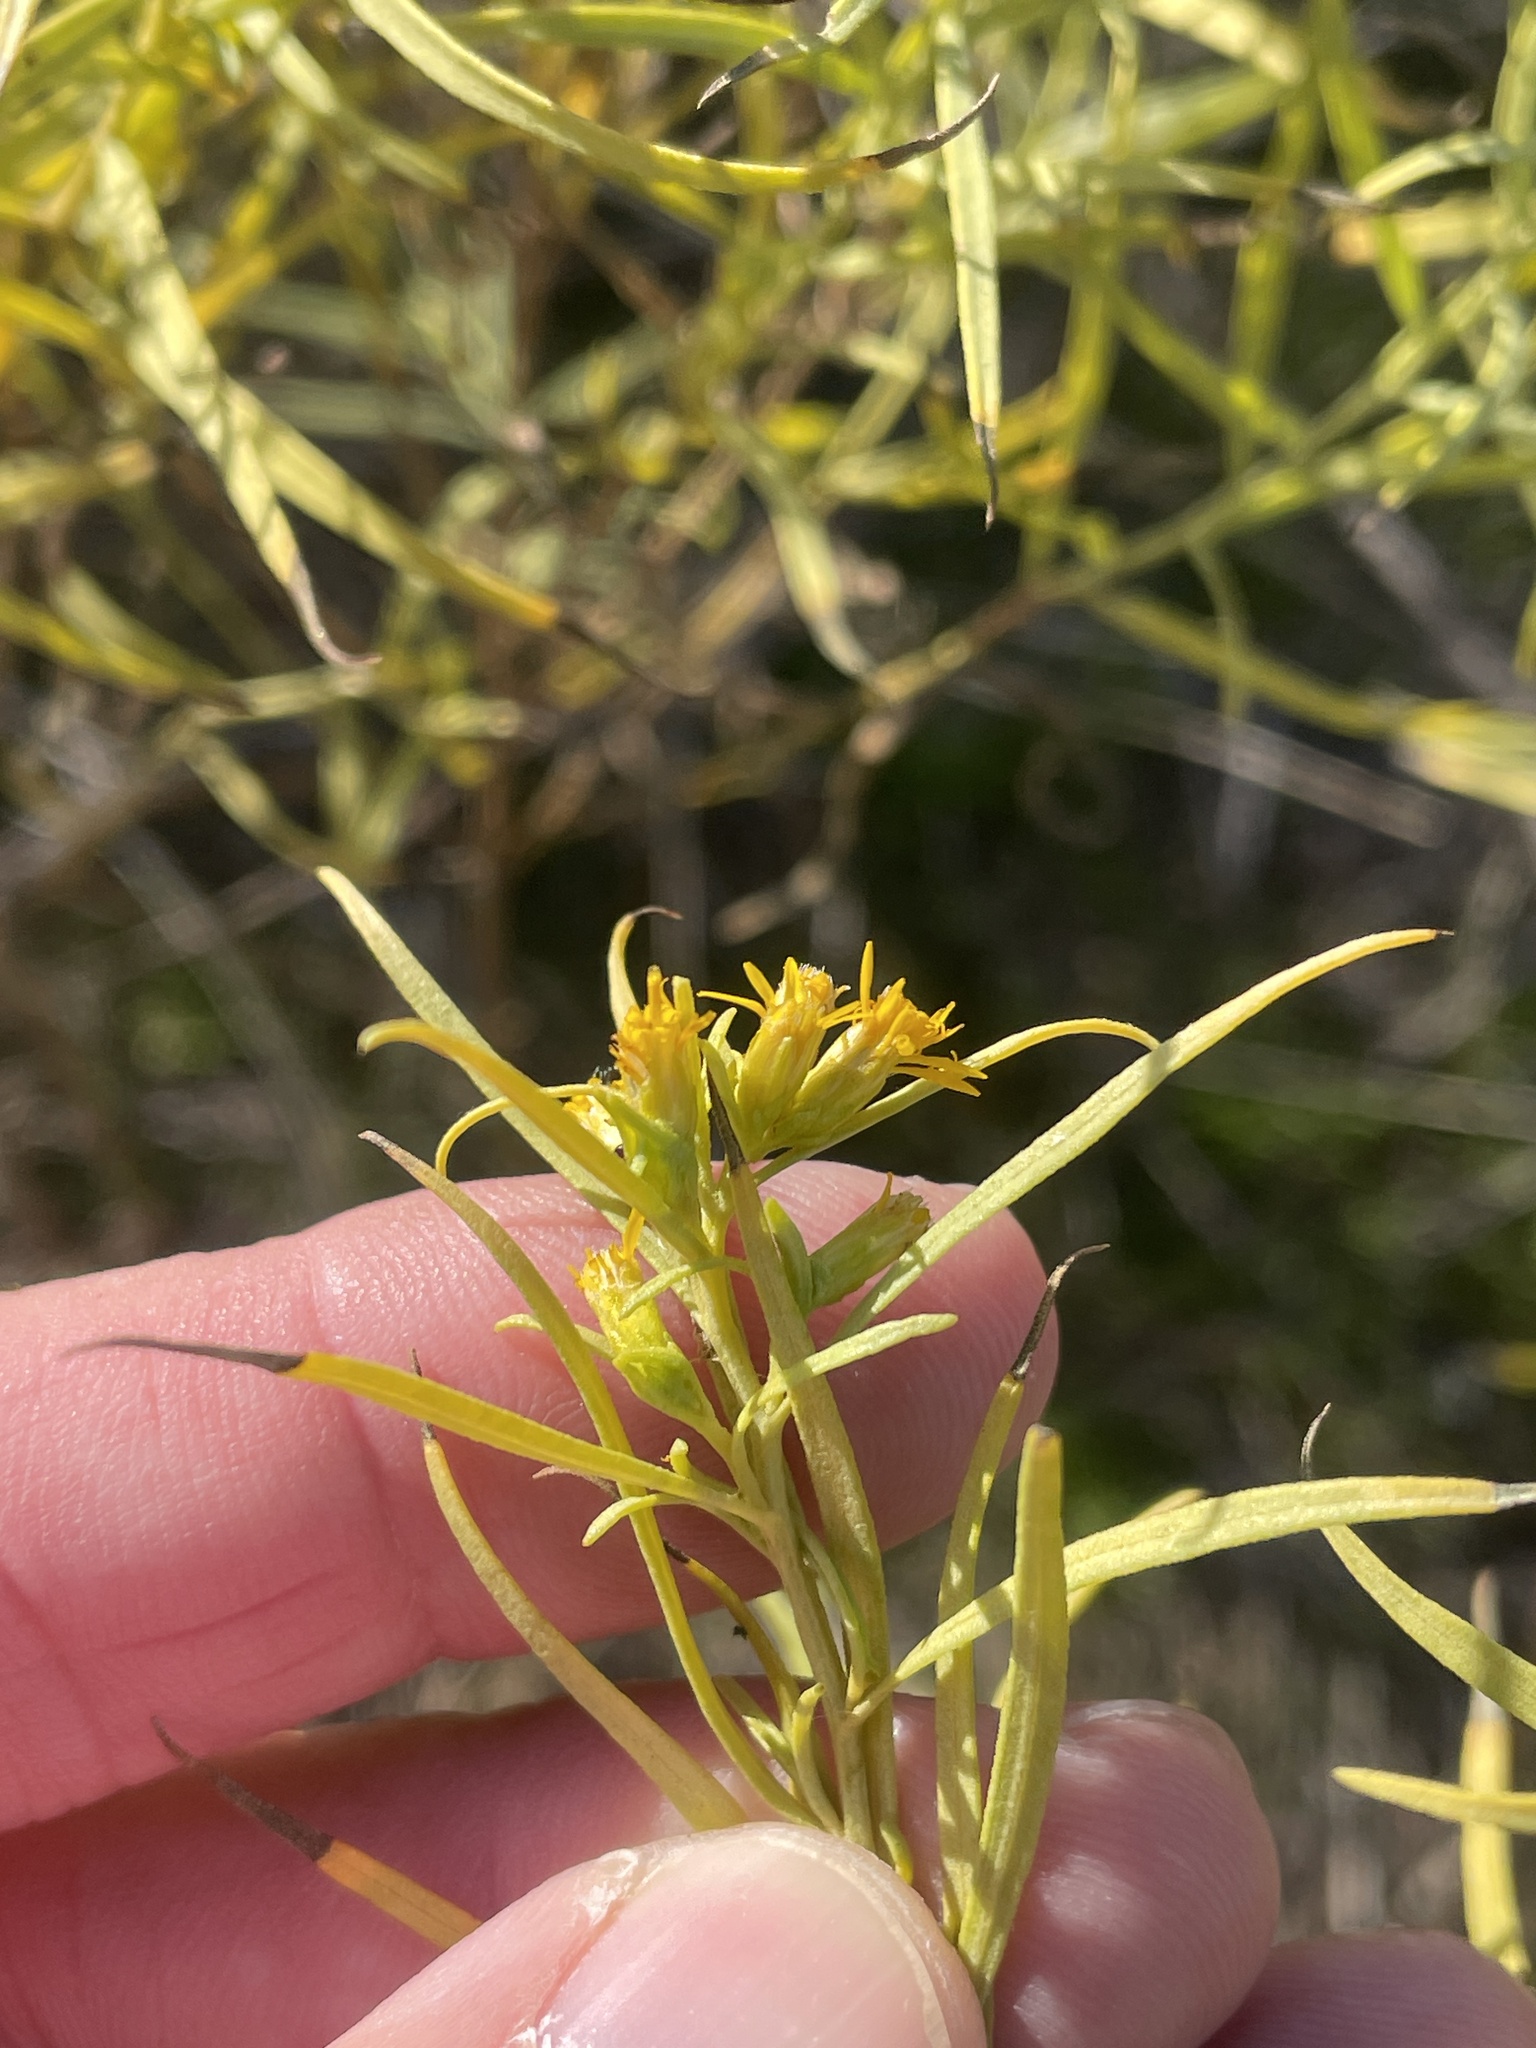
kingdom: Plantae
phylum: Tracheophyta
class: Magnoliopsida
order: Asterales
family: Asteraceae
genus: Euthamia
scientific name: Euthamia gymnospermoides
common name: Great plains goldentop
